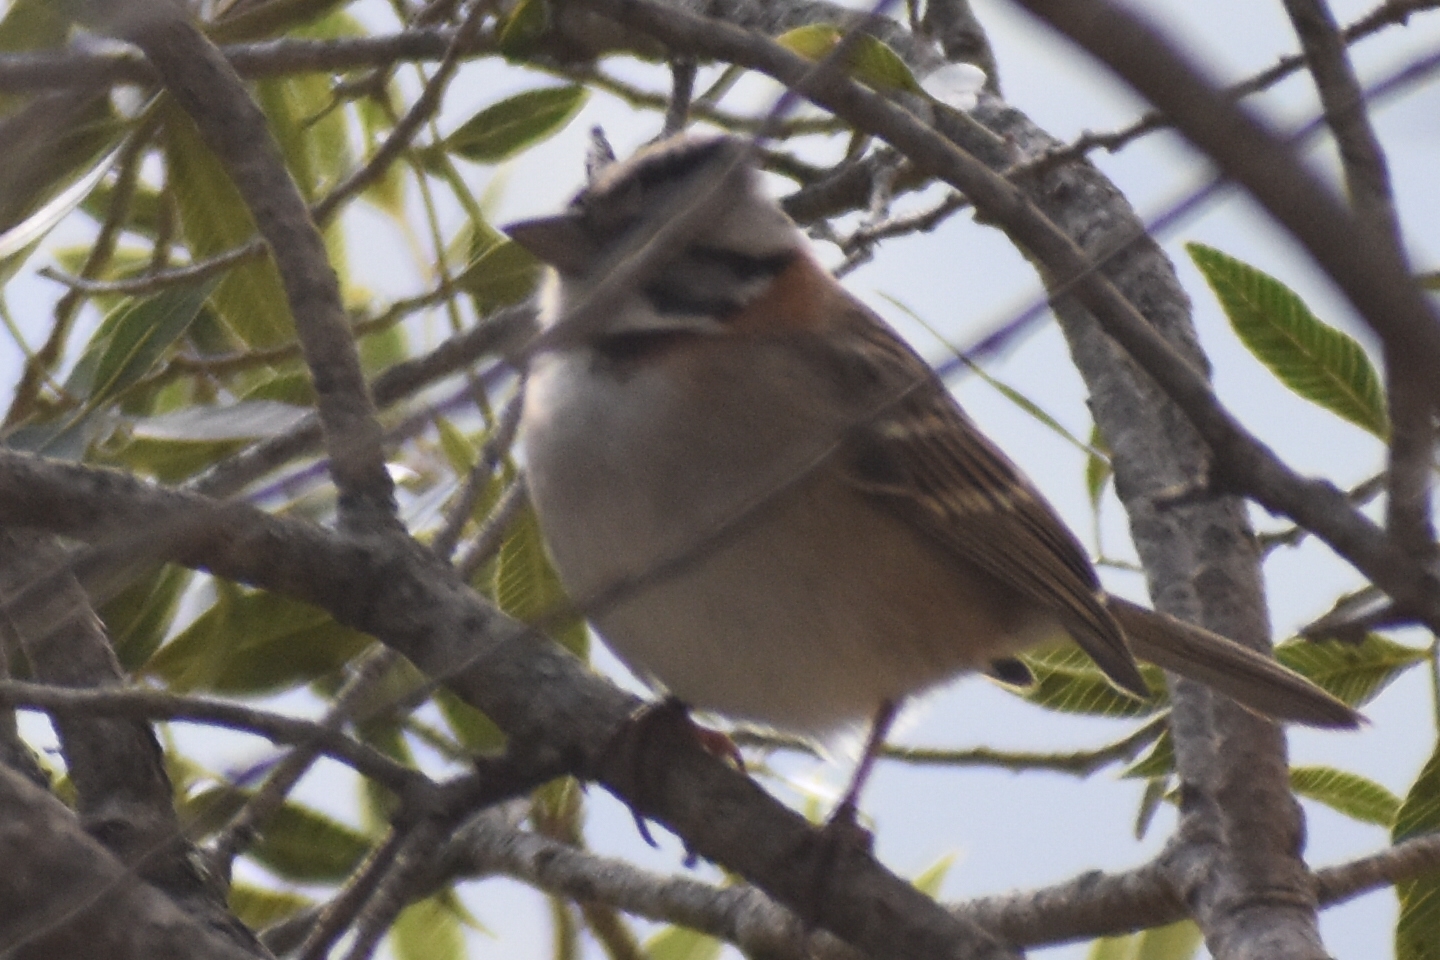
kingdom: Animalia
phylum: Chordata
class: Aves
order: Passeriformes
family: Passerellidae
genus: Zonotrichia
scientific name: Zonotrichia capensis
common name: Rufous-collared sparrow
